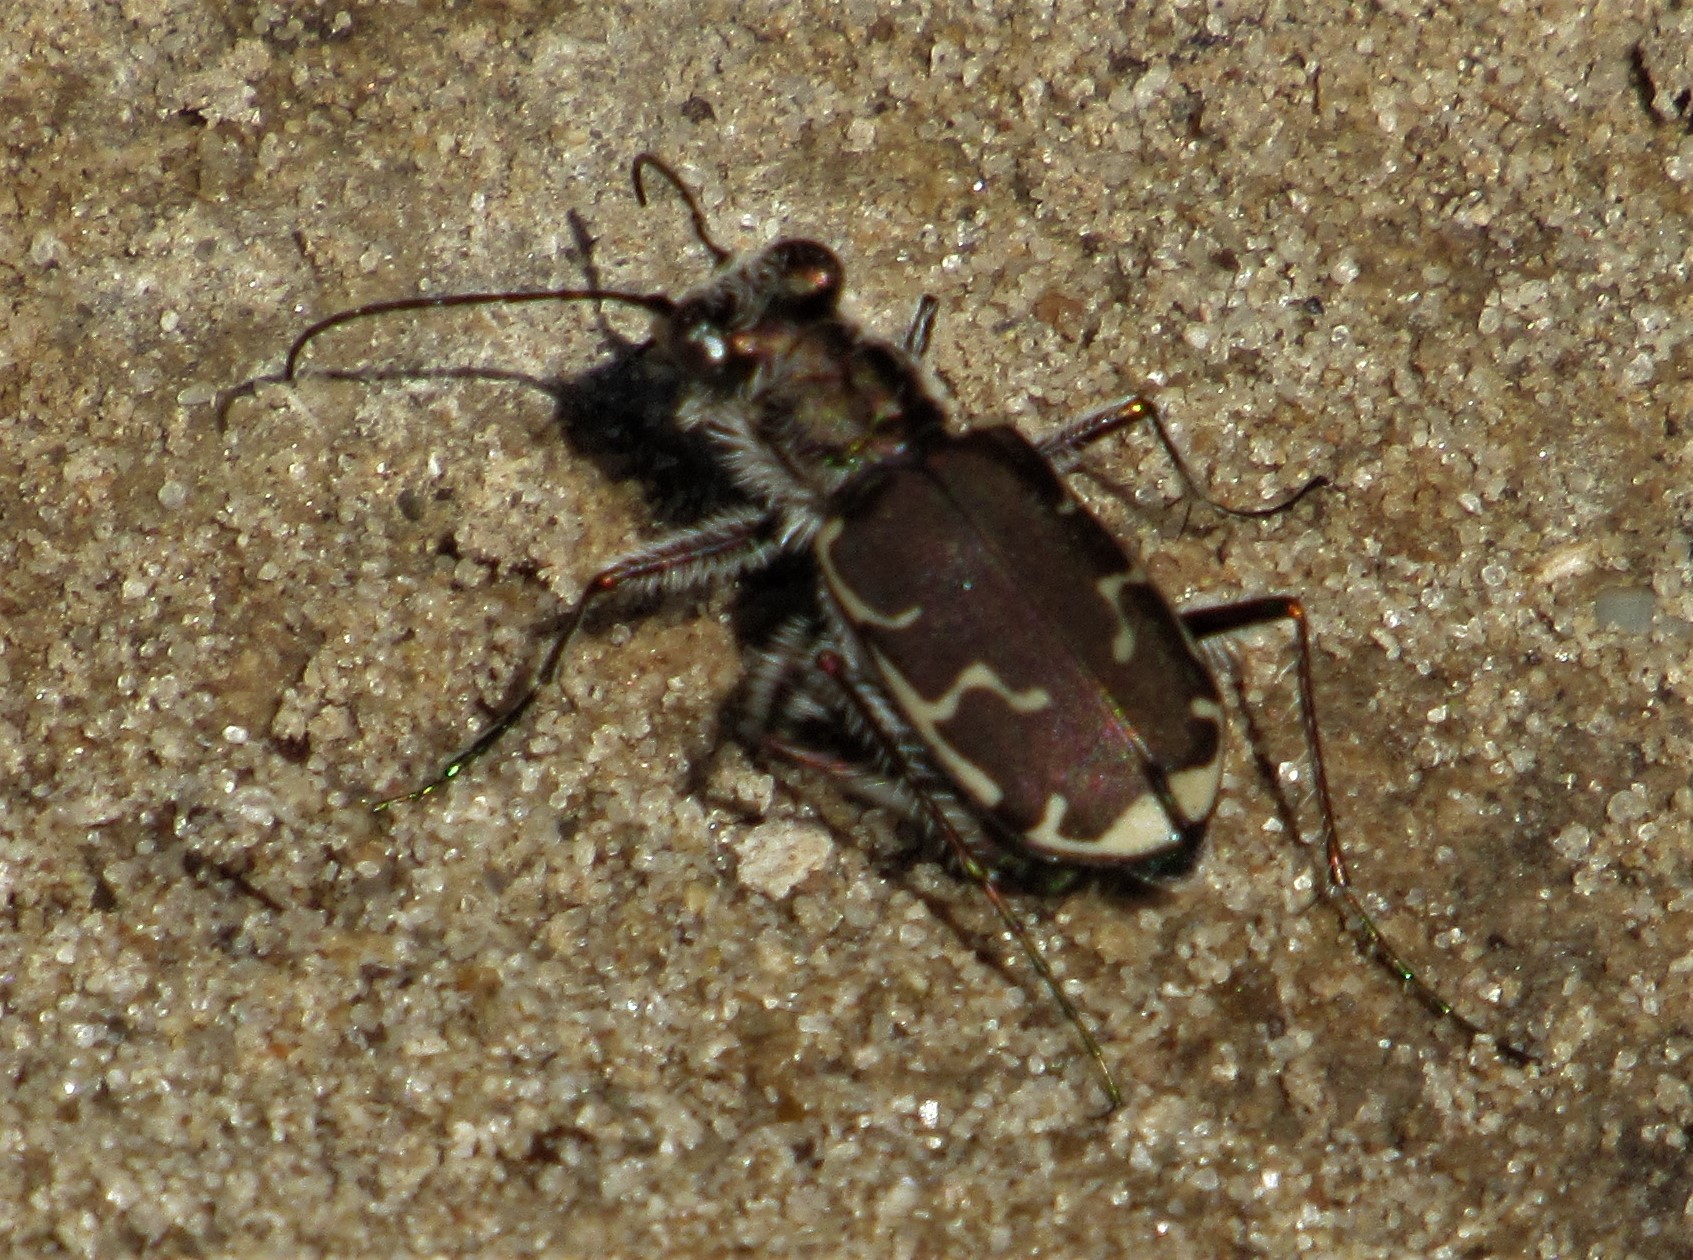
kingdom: Animalia
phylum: Arthropoda
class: Insecta
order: Coleoptera
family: Carabidae
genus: Cicindela
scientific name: Cicindela repanda
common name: Bronzed tiger beetle
